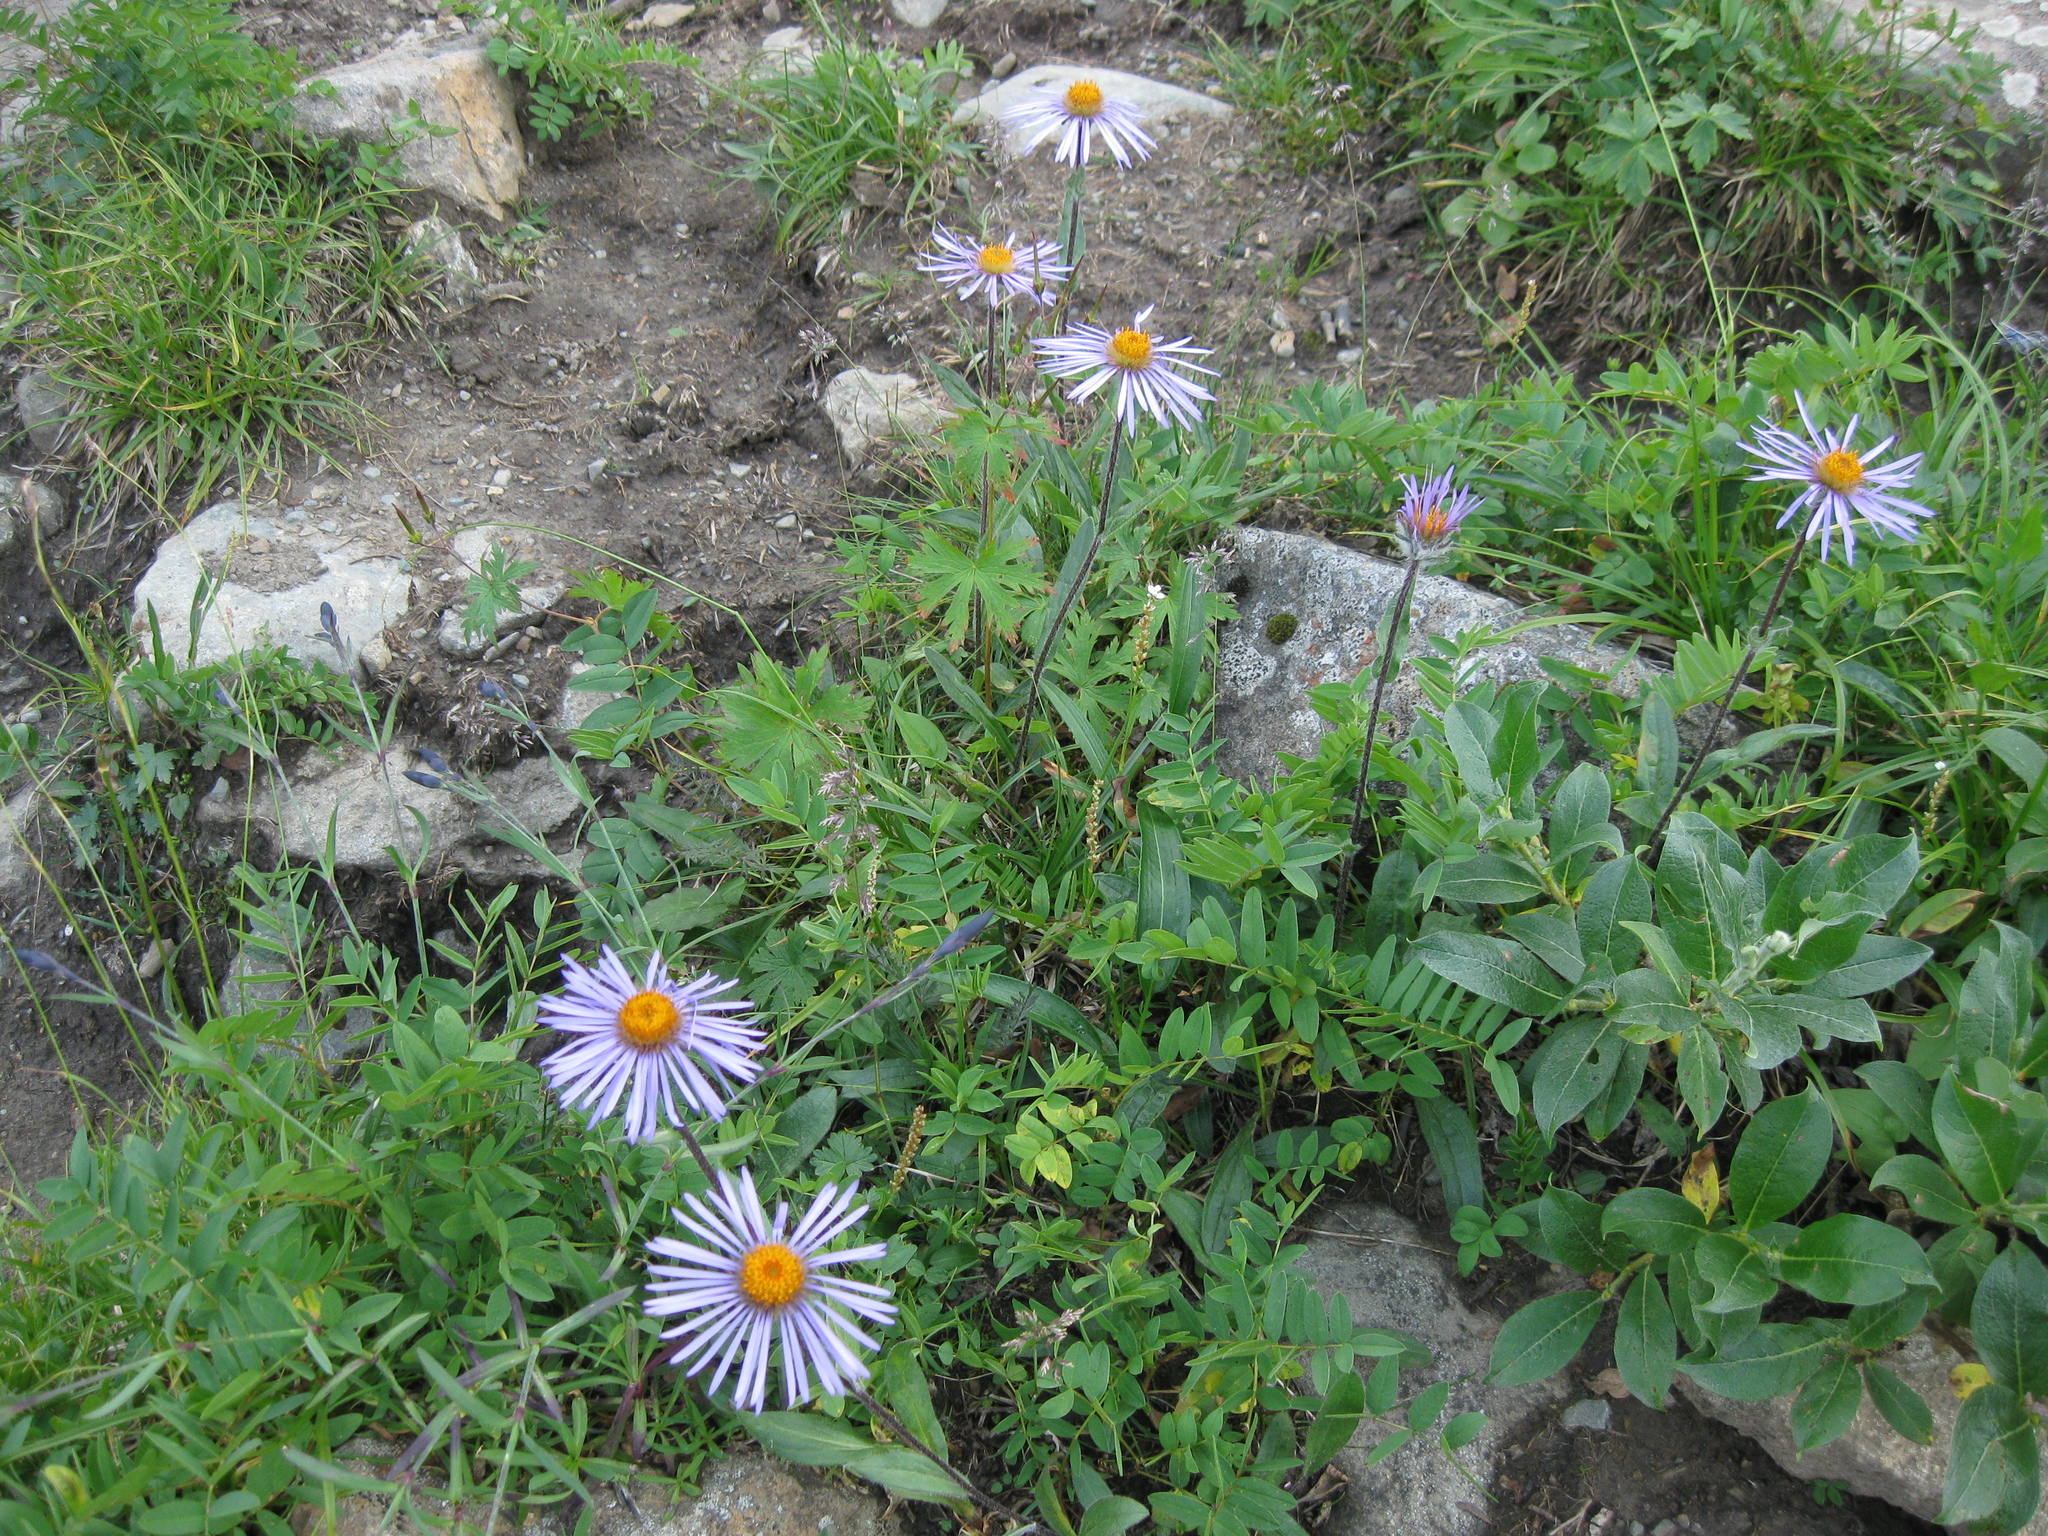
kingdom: Plantae
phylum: Tracheophyta
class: Magnoliopsida
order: Asterales
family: Asteraceae
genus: Tibetiodes
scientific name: Tibetiodes flaccida
